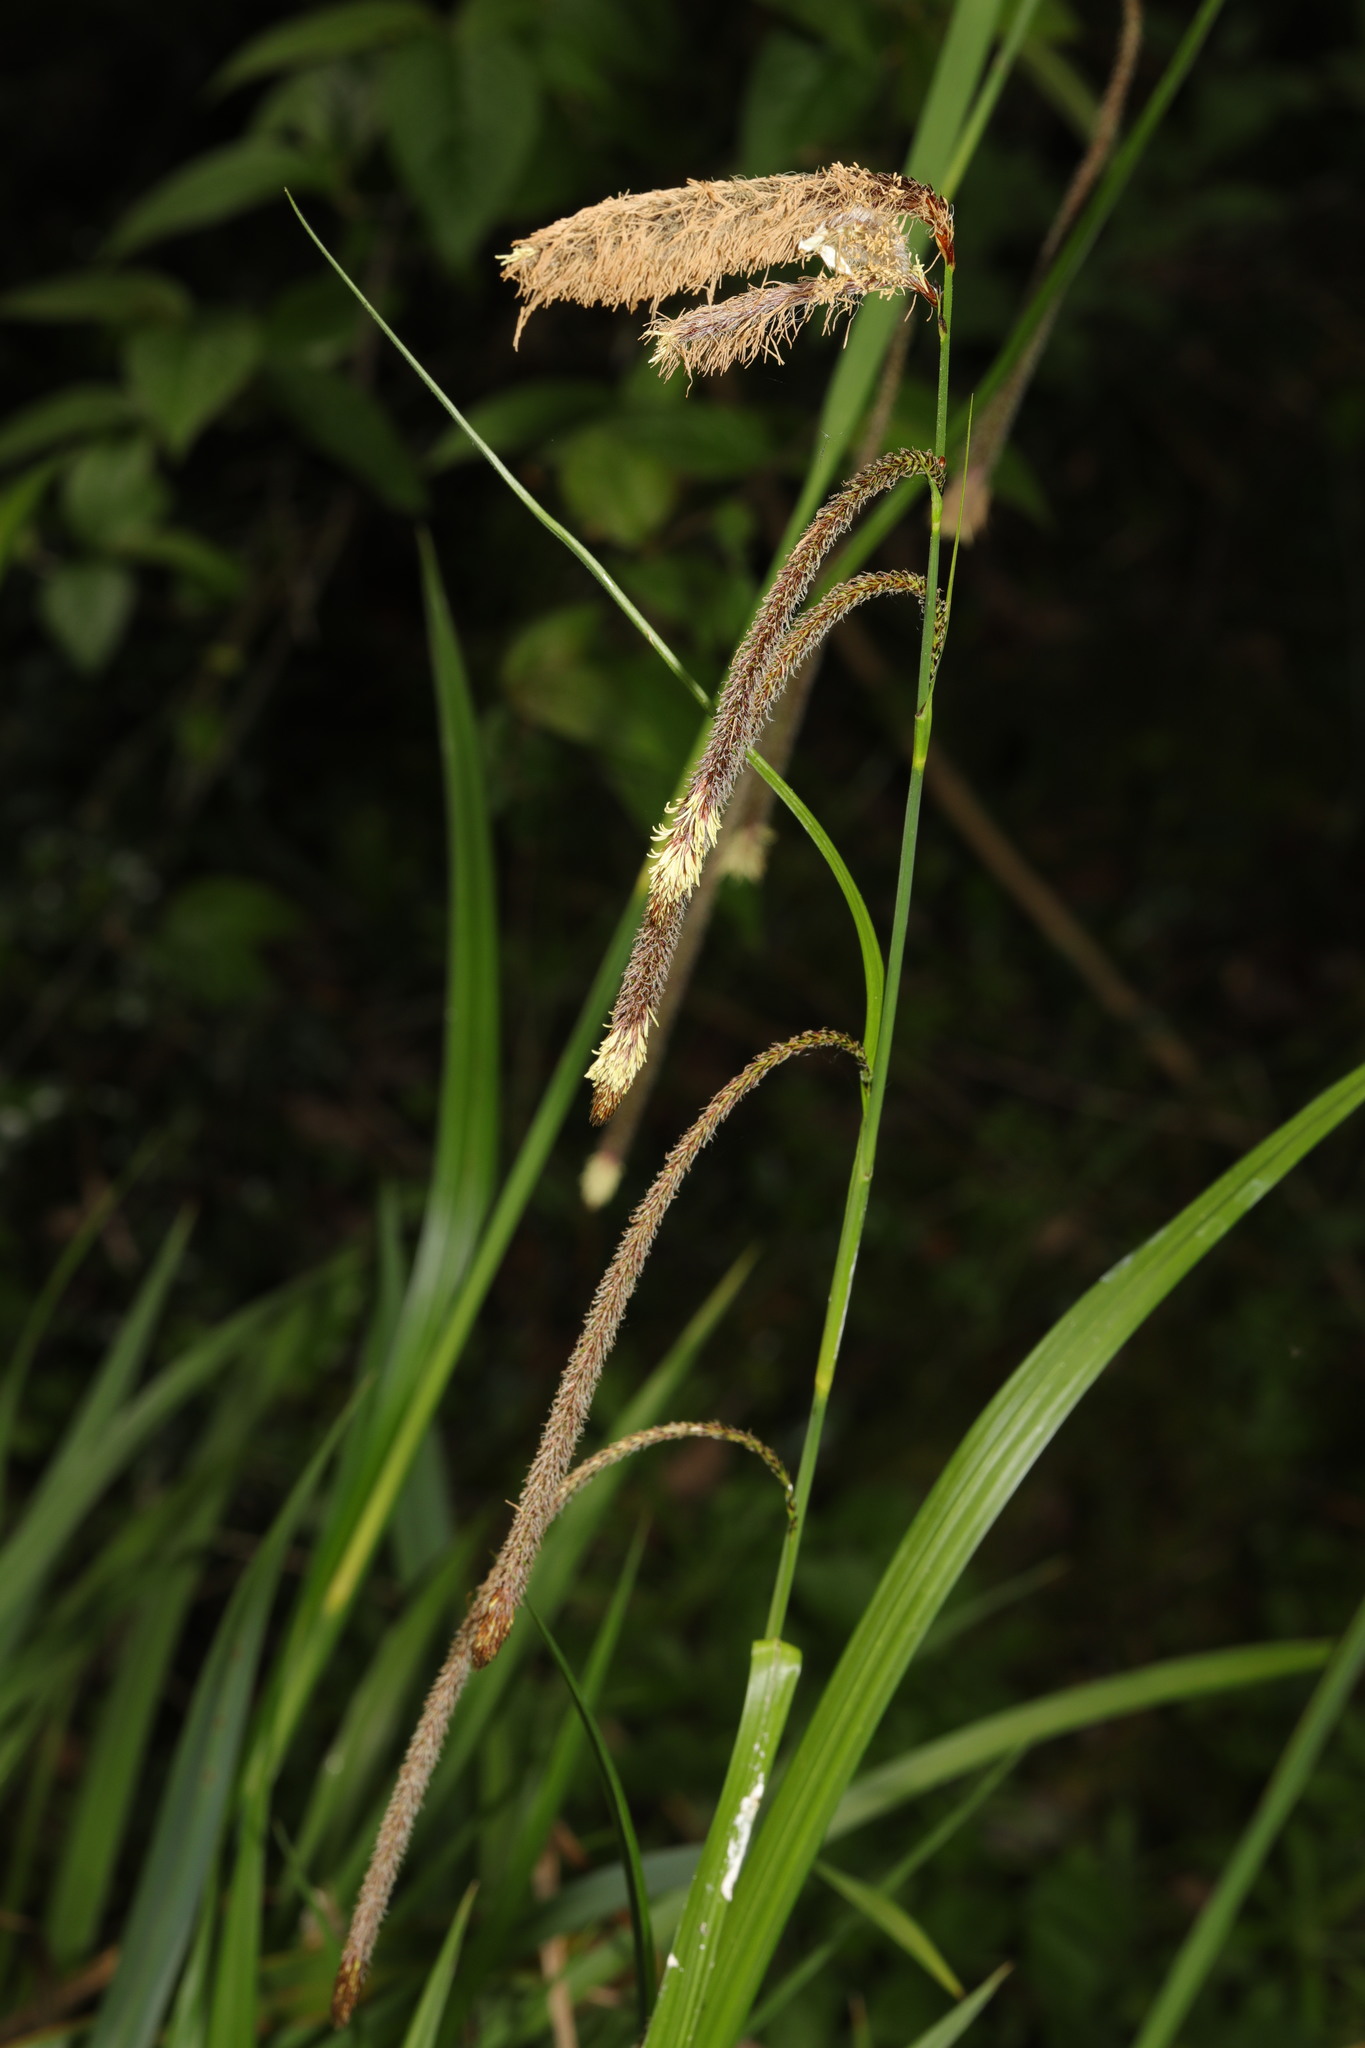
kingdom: Plantae
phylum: Tracheophyta
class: Liliopsida
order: Poales
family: Cyperaceae
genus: Carex
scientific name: Carex pendula
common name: Pendulous sedge
